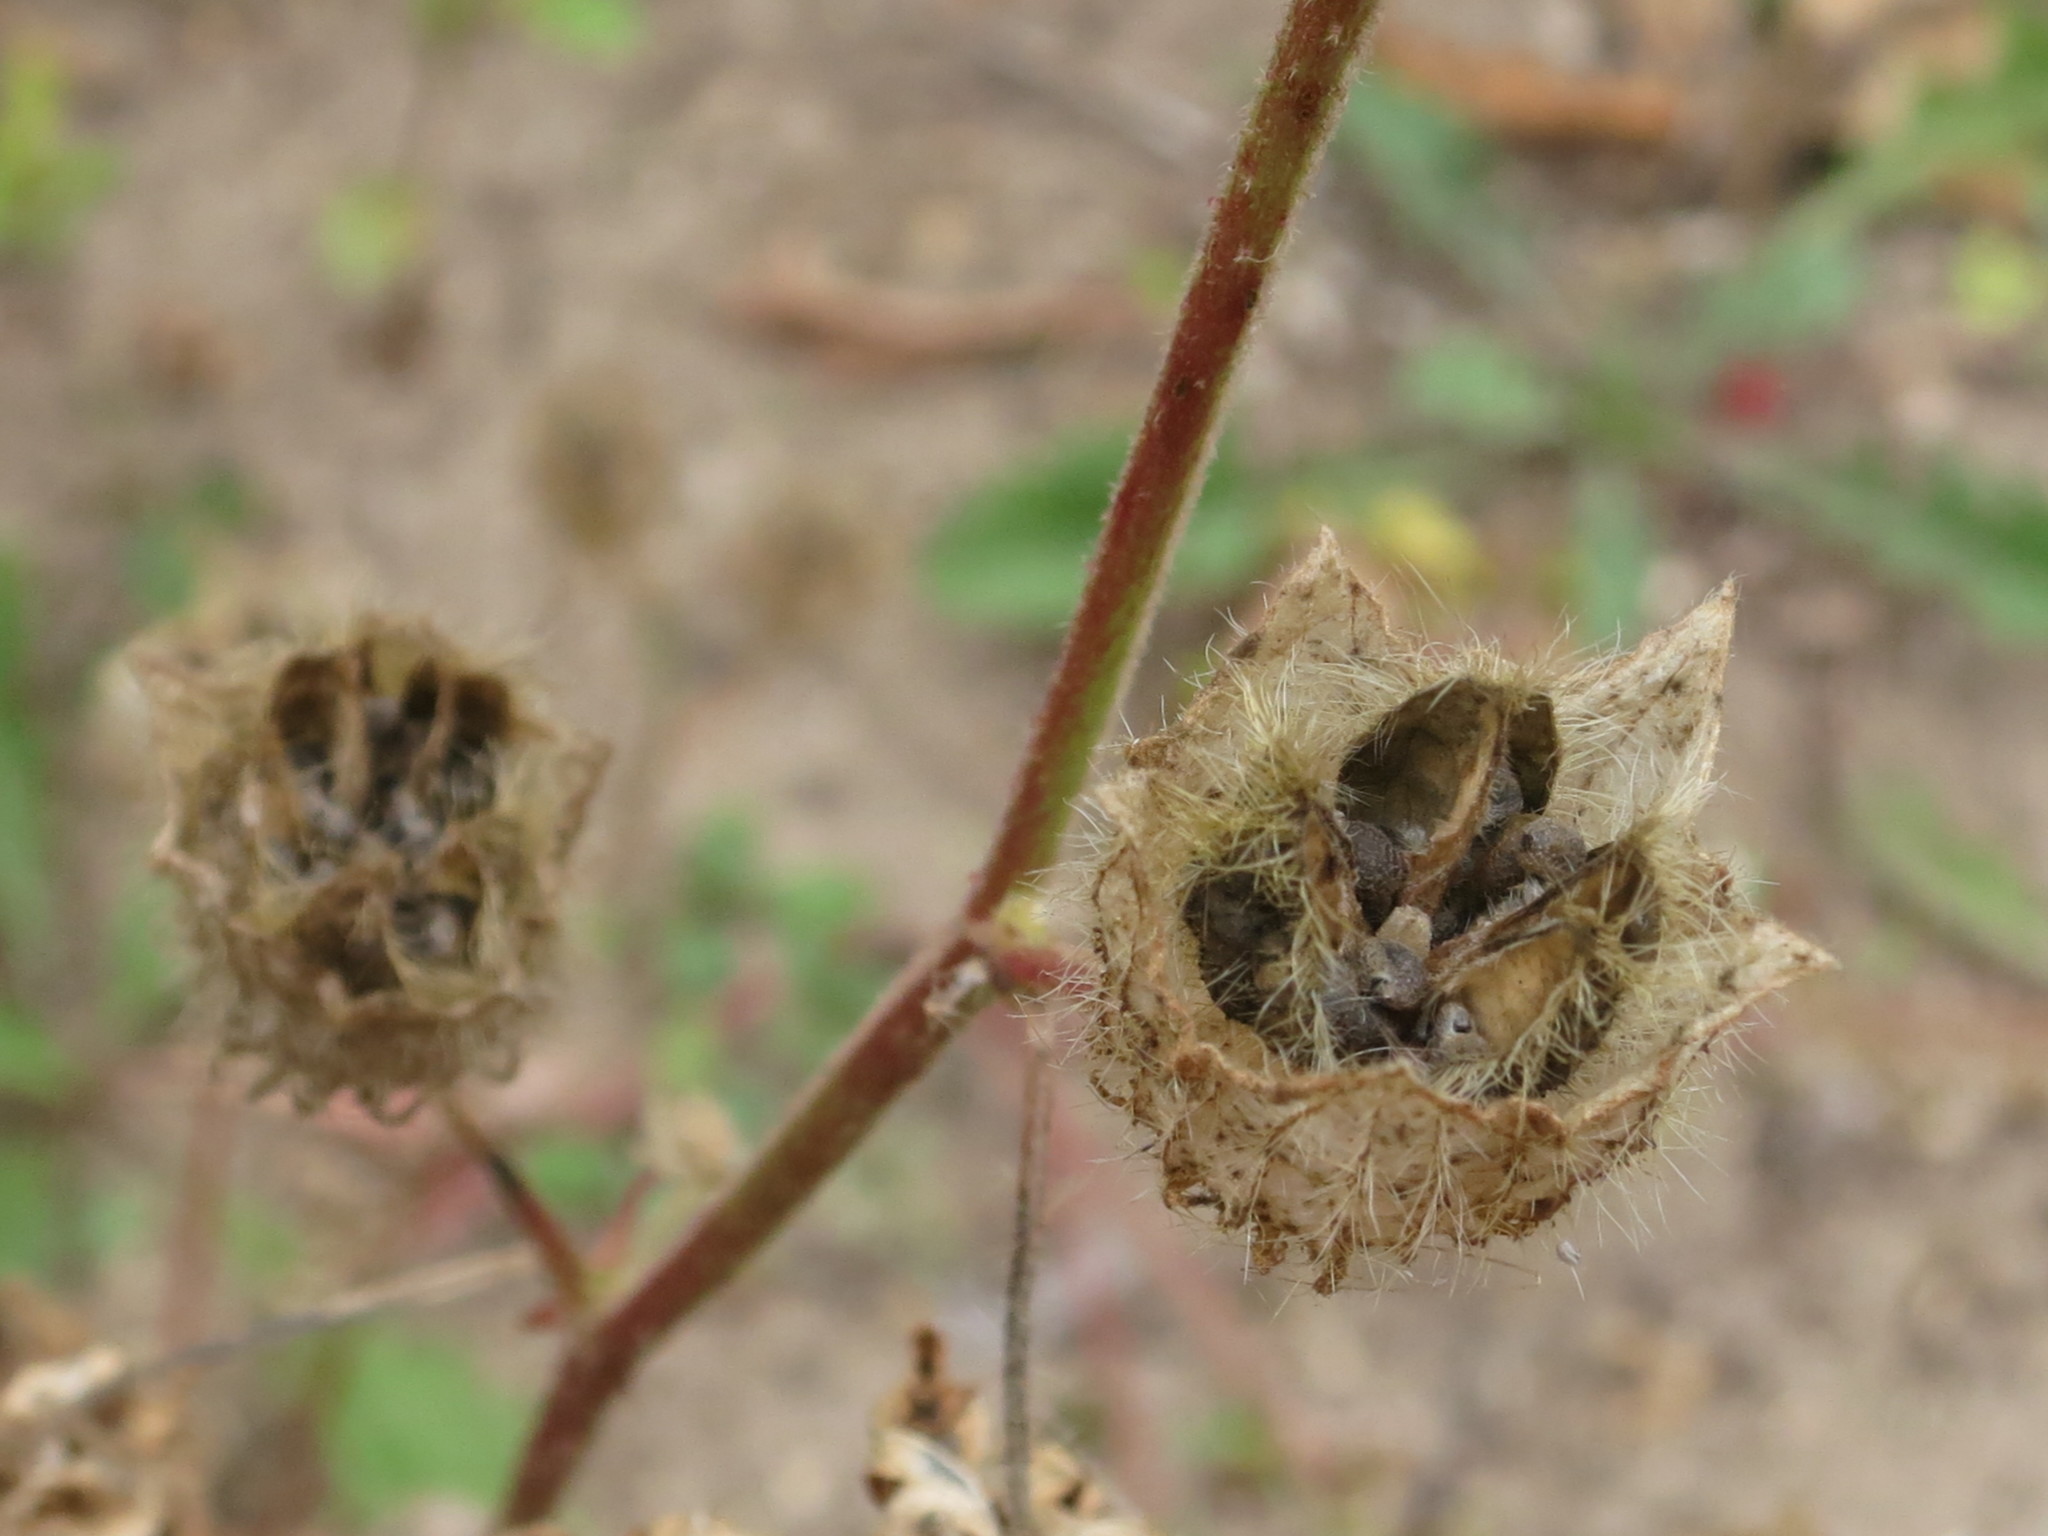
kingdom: Plantae
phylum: Tracheophyta
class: Magnoliopsida
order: Malvales
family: Malvaceae
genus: Hibiscus
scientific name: Hibiscus trionum
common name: Bladder ketmia
